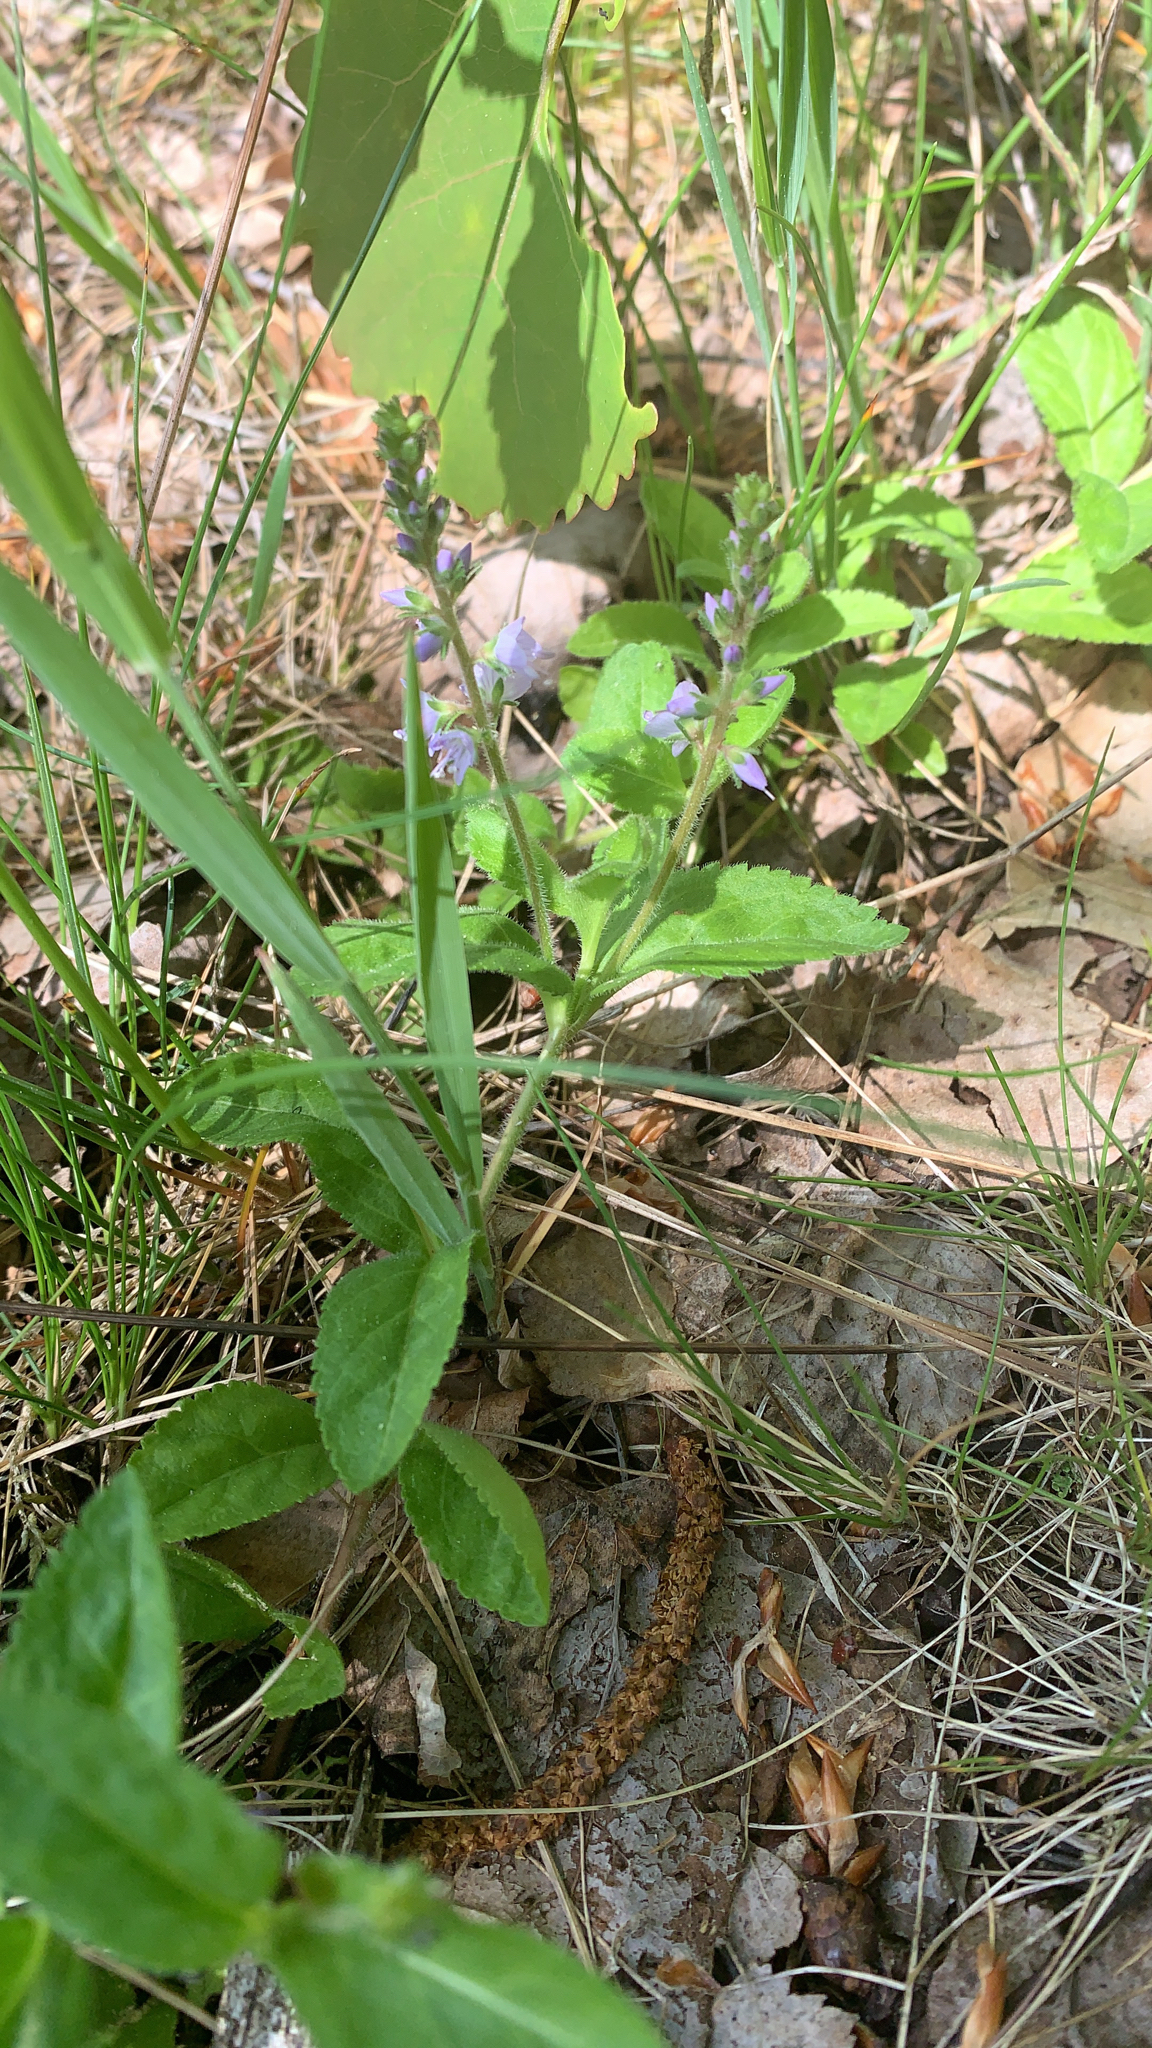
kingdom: Plantae
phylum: Tracheophyta
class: Magnoliopsida
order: Lamiales
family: Plantaginaceae
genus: Veronica
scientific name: Veronica officinalis
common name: Common speedwell
